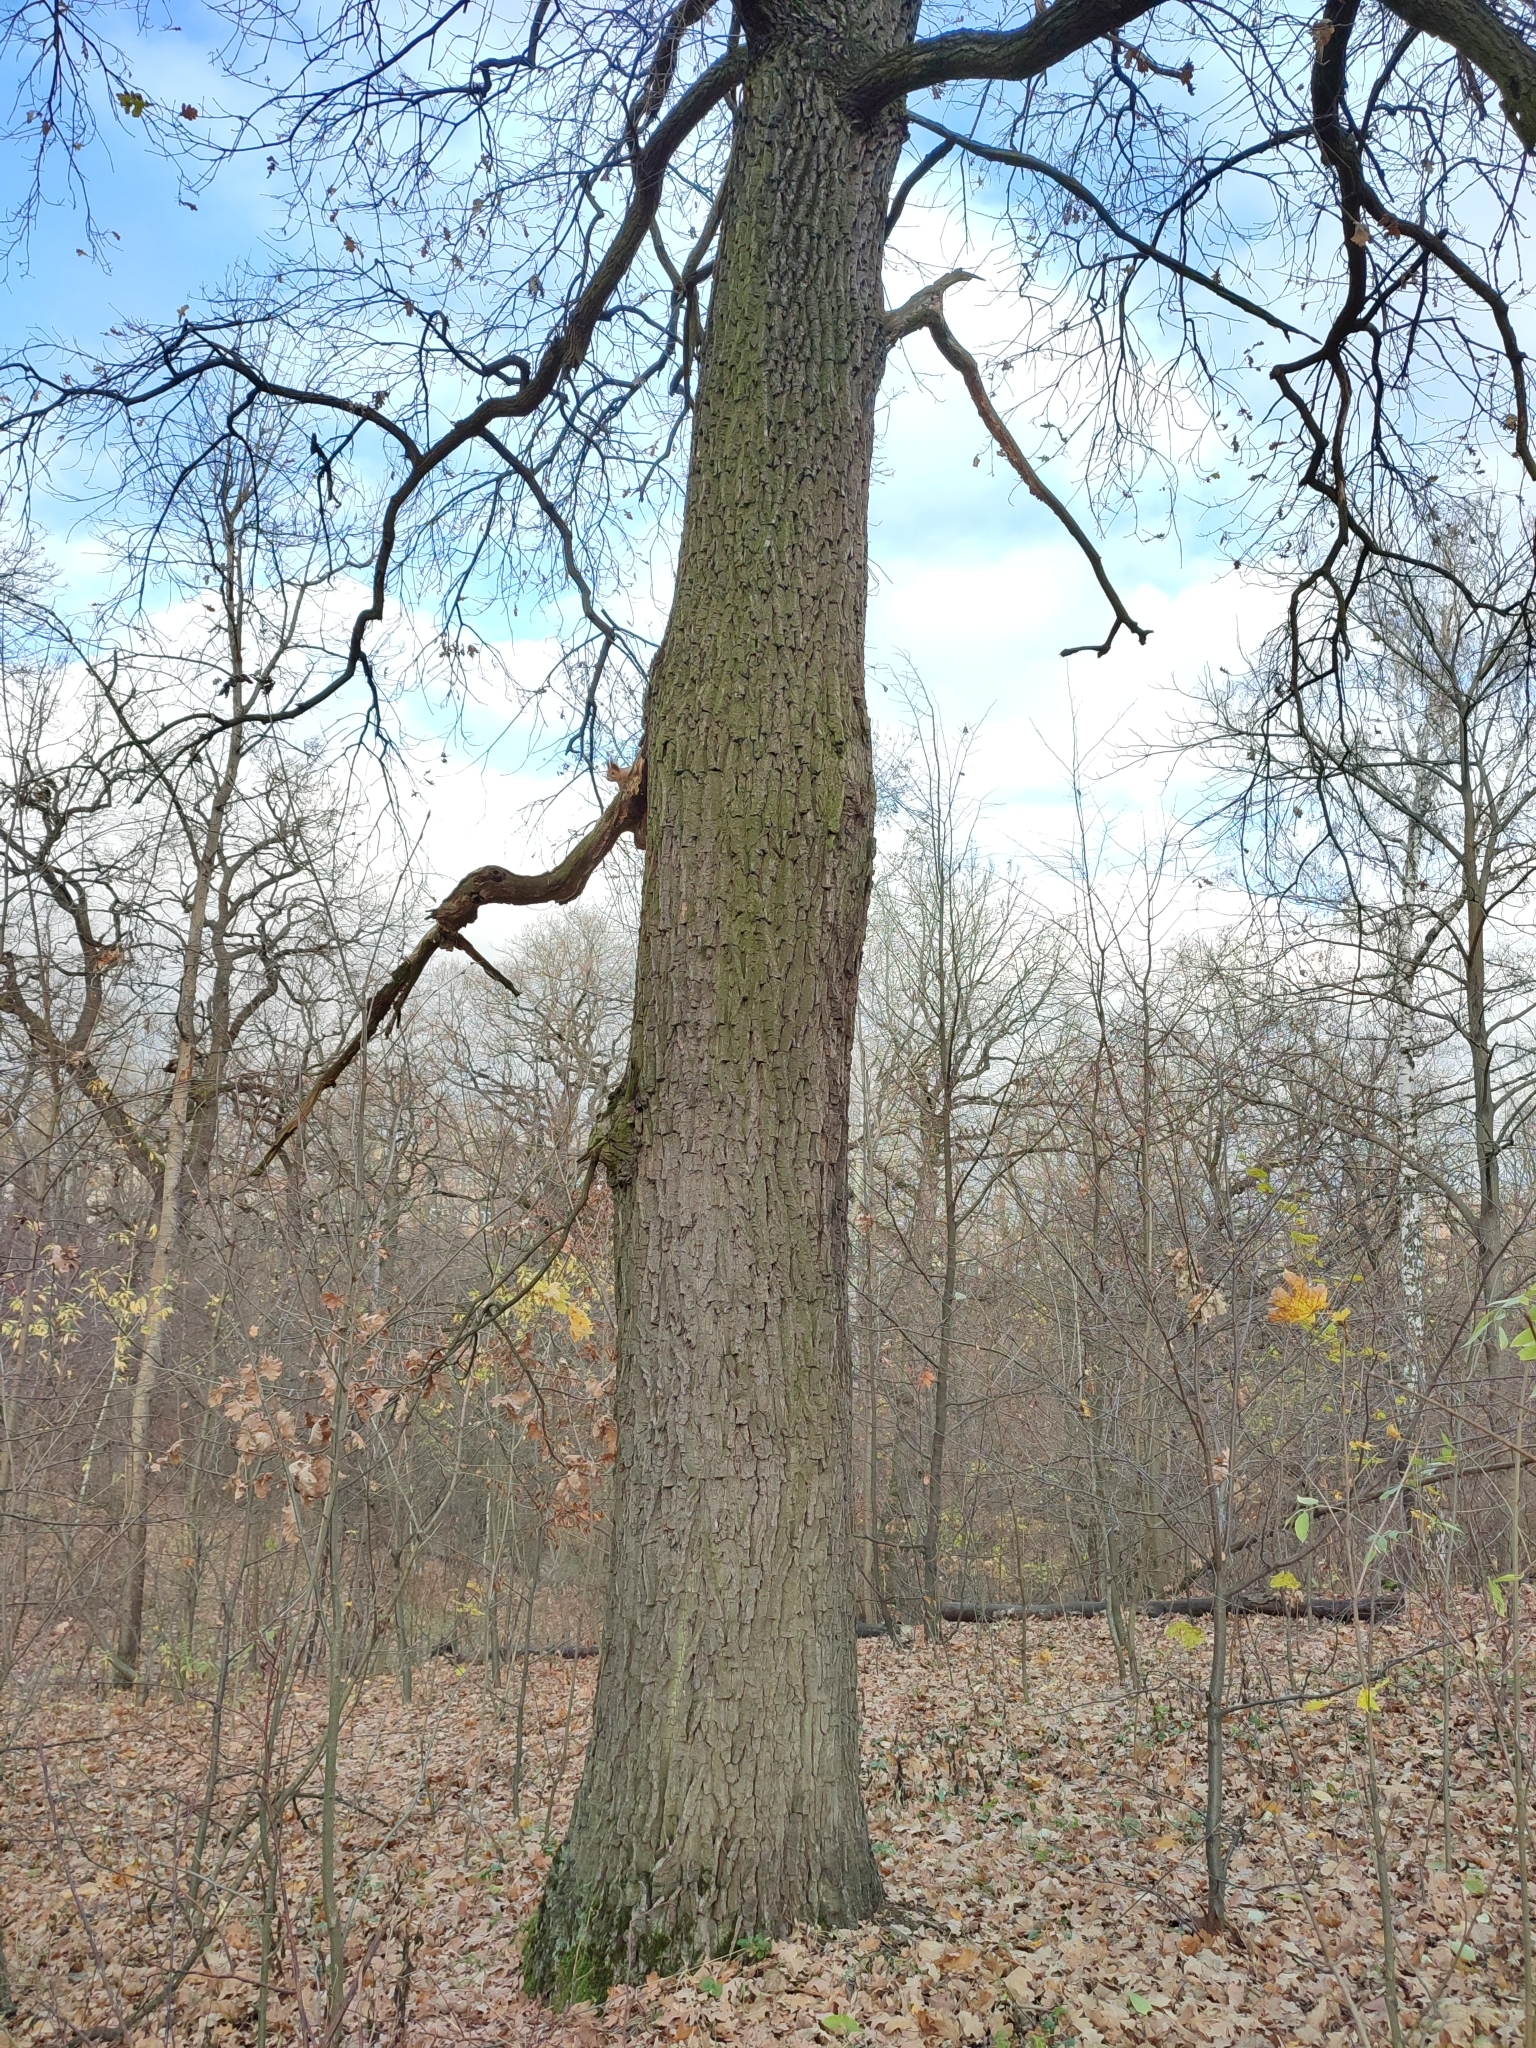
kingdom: Plantae
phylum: Tracheophyta
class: Magnoliopsida
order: Fagales
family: Fagaceae
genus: Quercus
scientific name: Quercus robur
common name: Pedunculate oak
